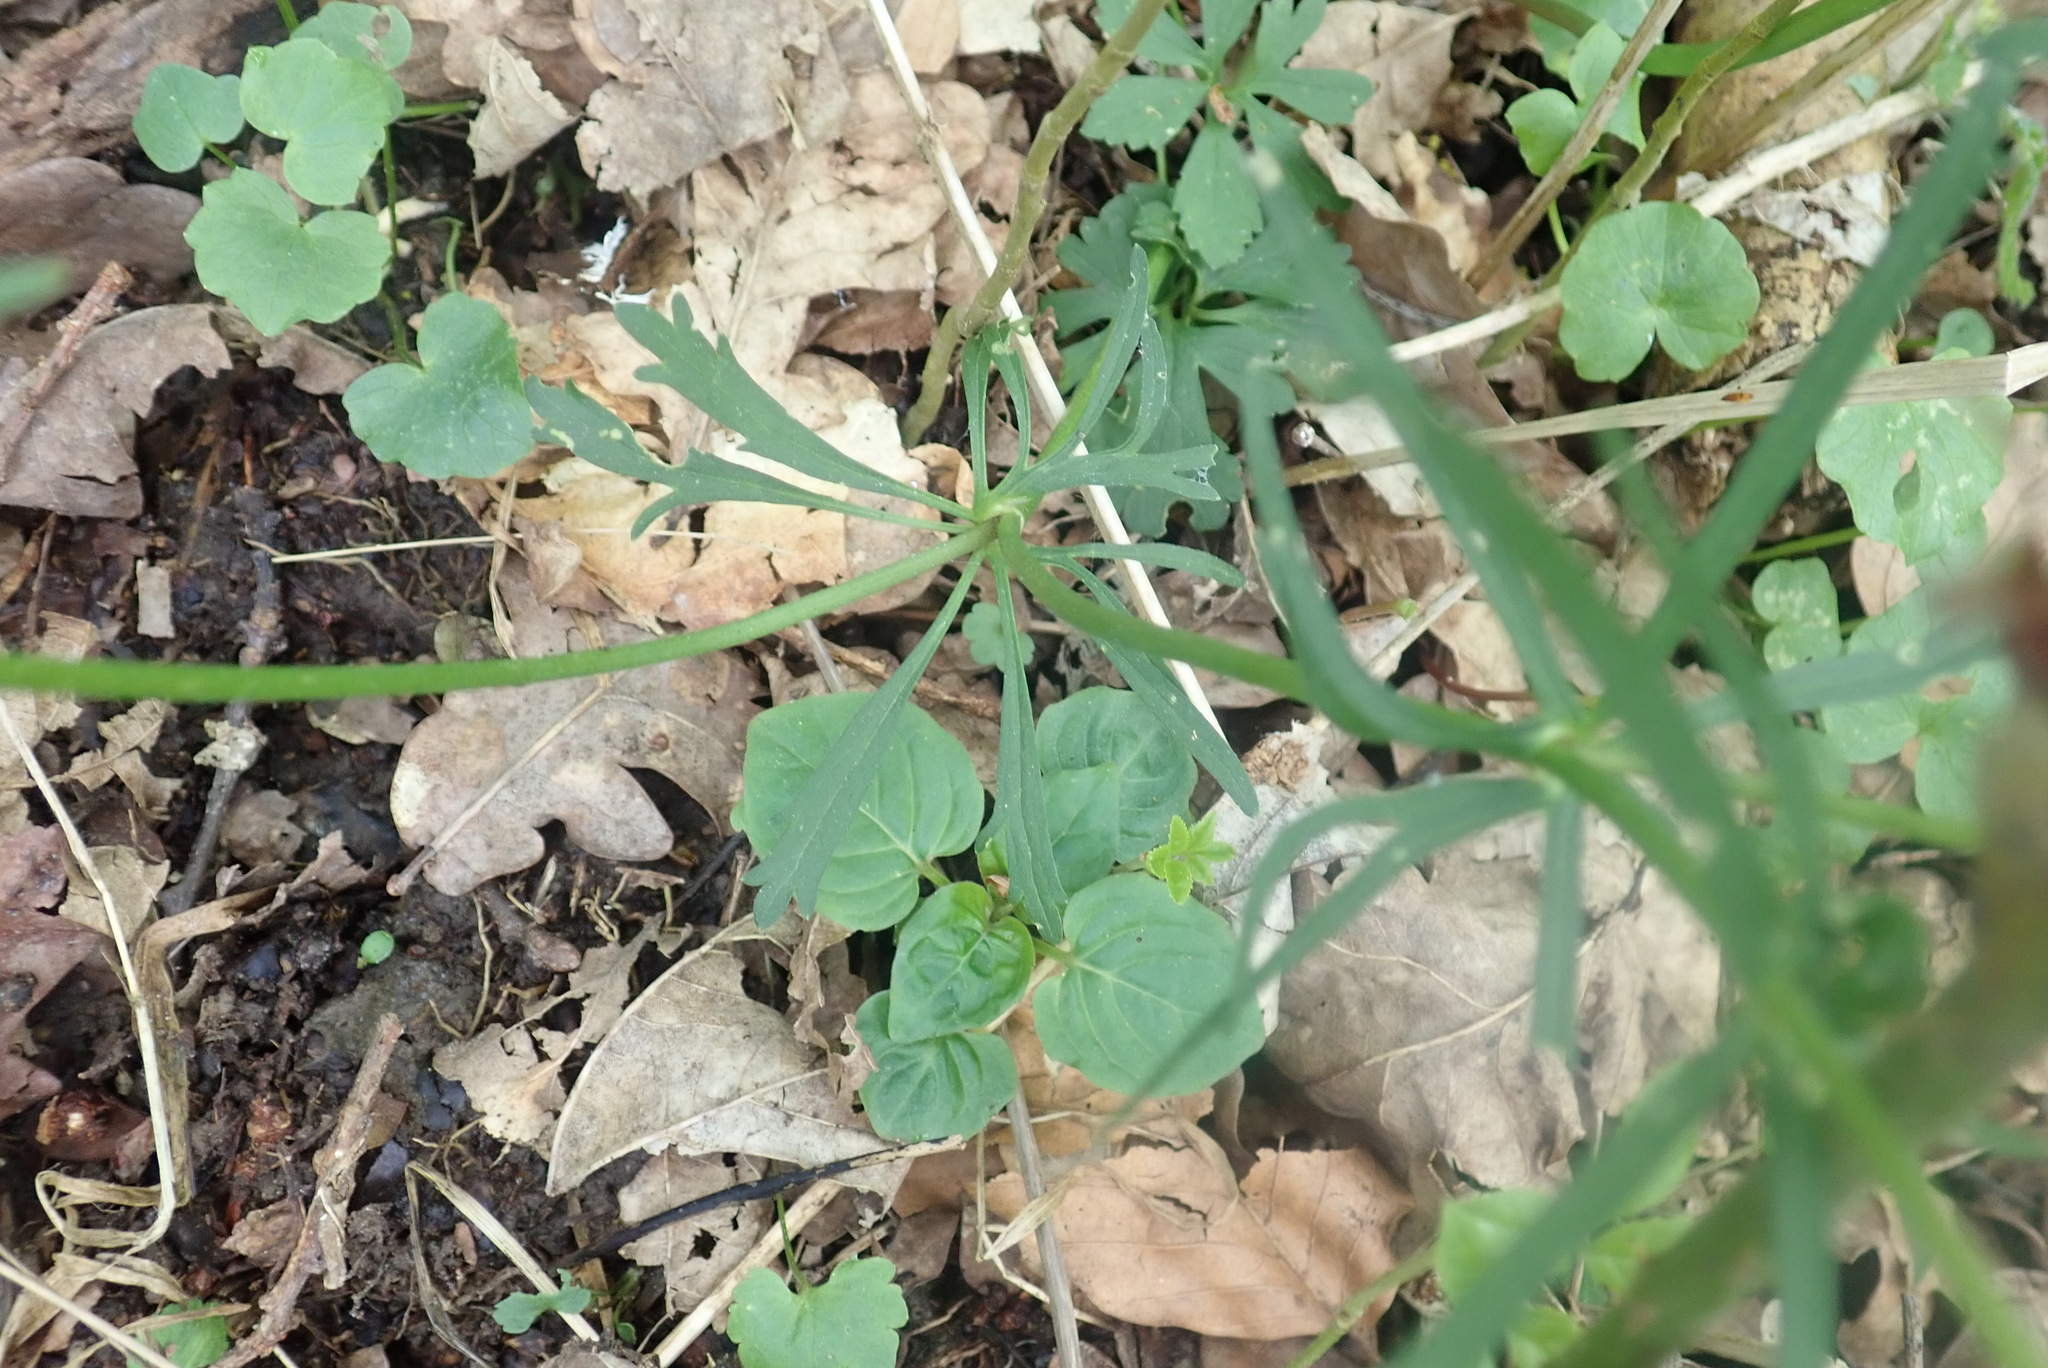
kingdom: Plantae
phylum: Tracheophyta
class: Magnoliopsida
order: Ranunculales
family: Ranunculaceae
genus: Ranunculus
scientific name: Ranunculus auricomus
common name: Goldilocks buttercup
